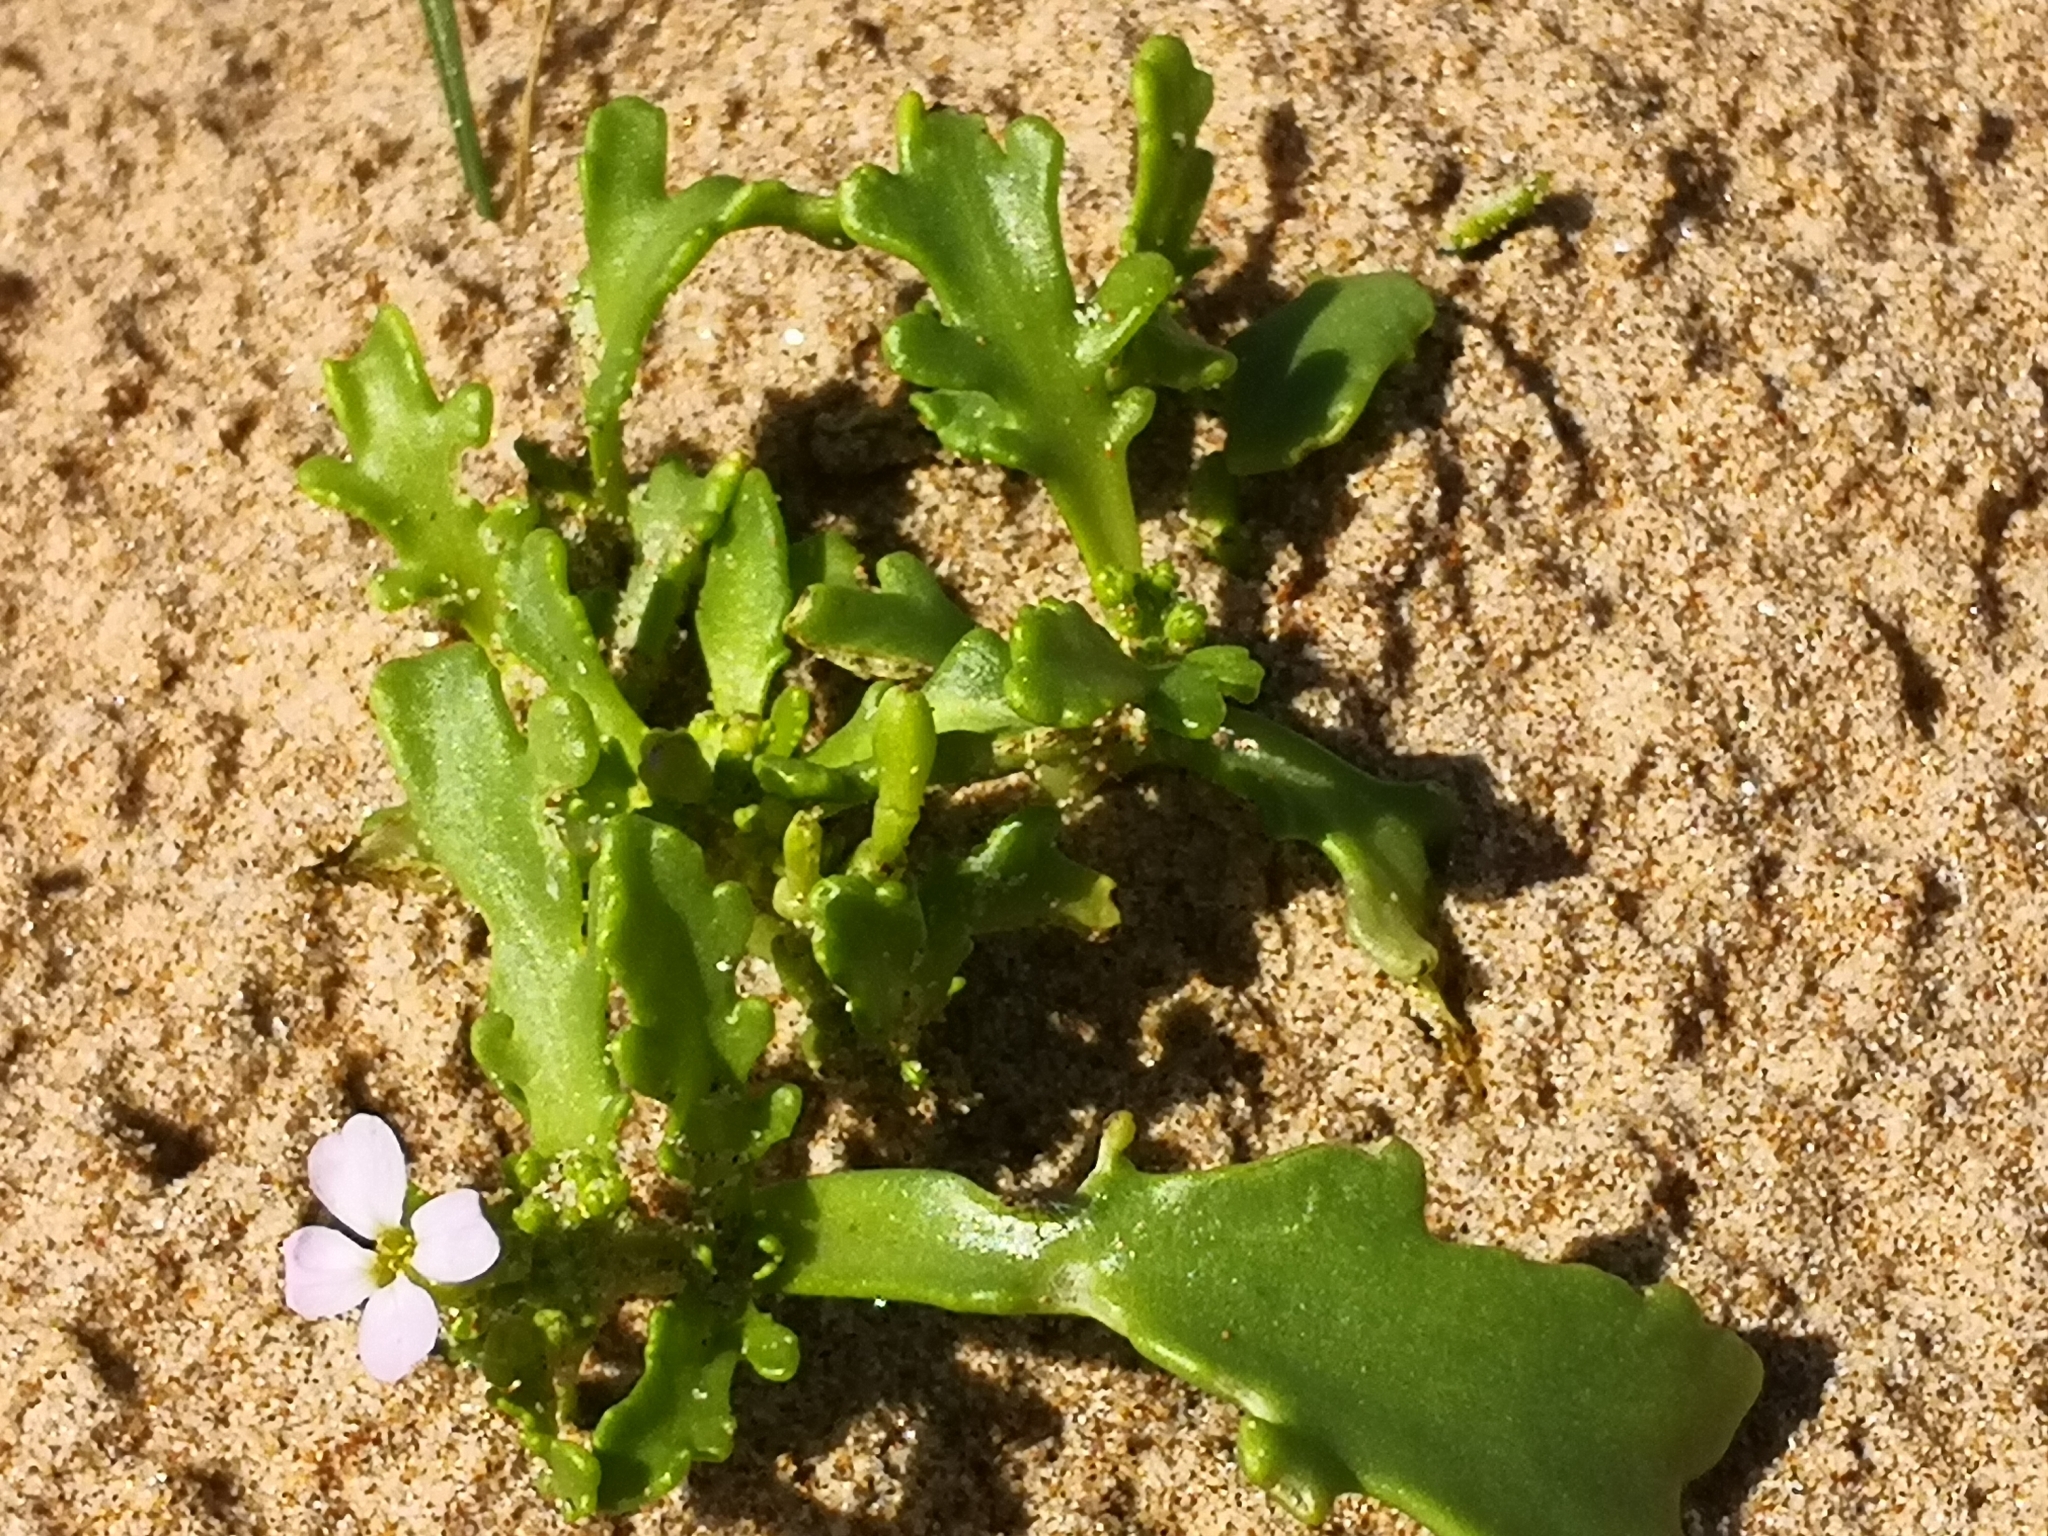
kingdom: Plantae
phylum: Tracheophyta
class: Magnoliopsida
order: Brassicales
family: Brassicaceae
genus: Cakile
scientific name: Cakile maritima
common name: Sea rocket
